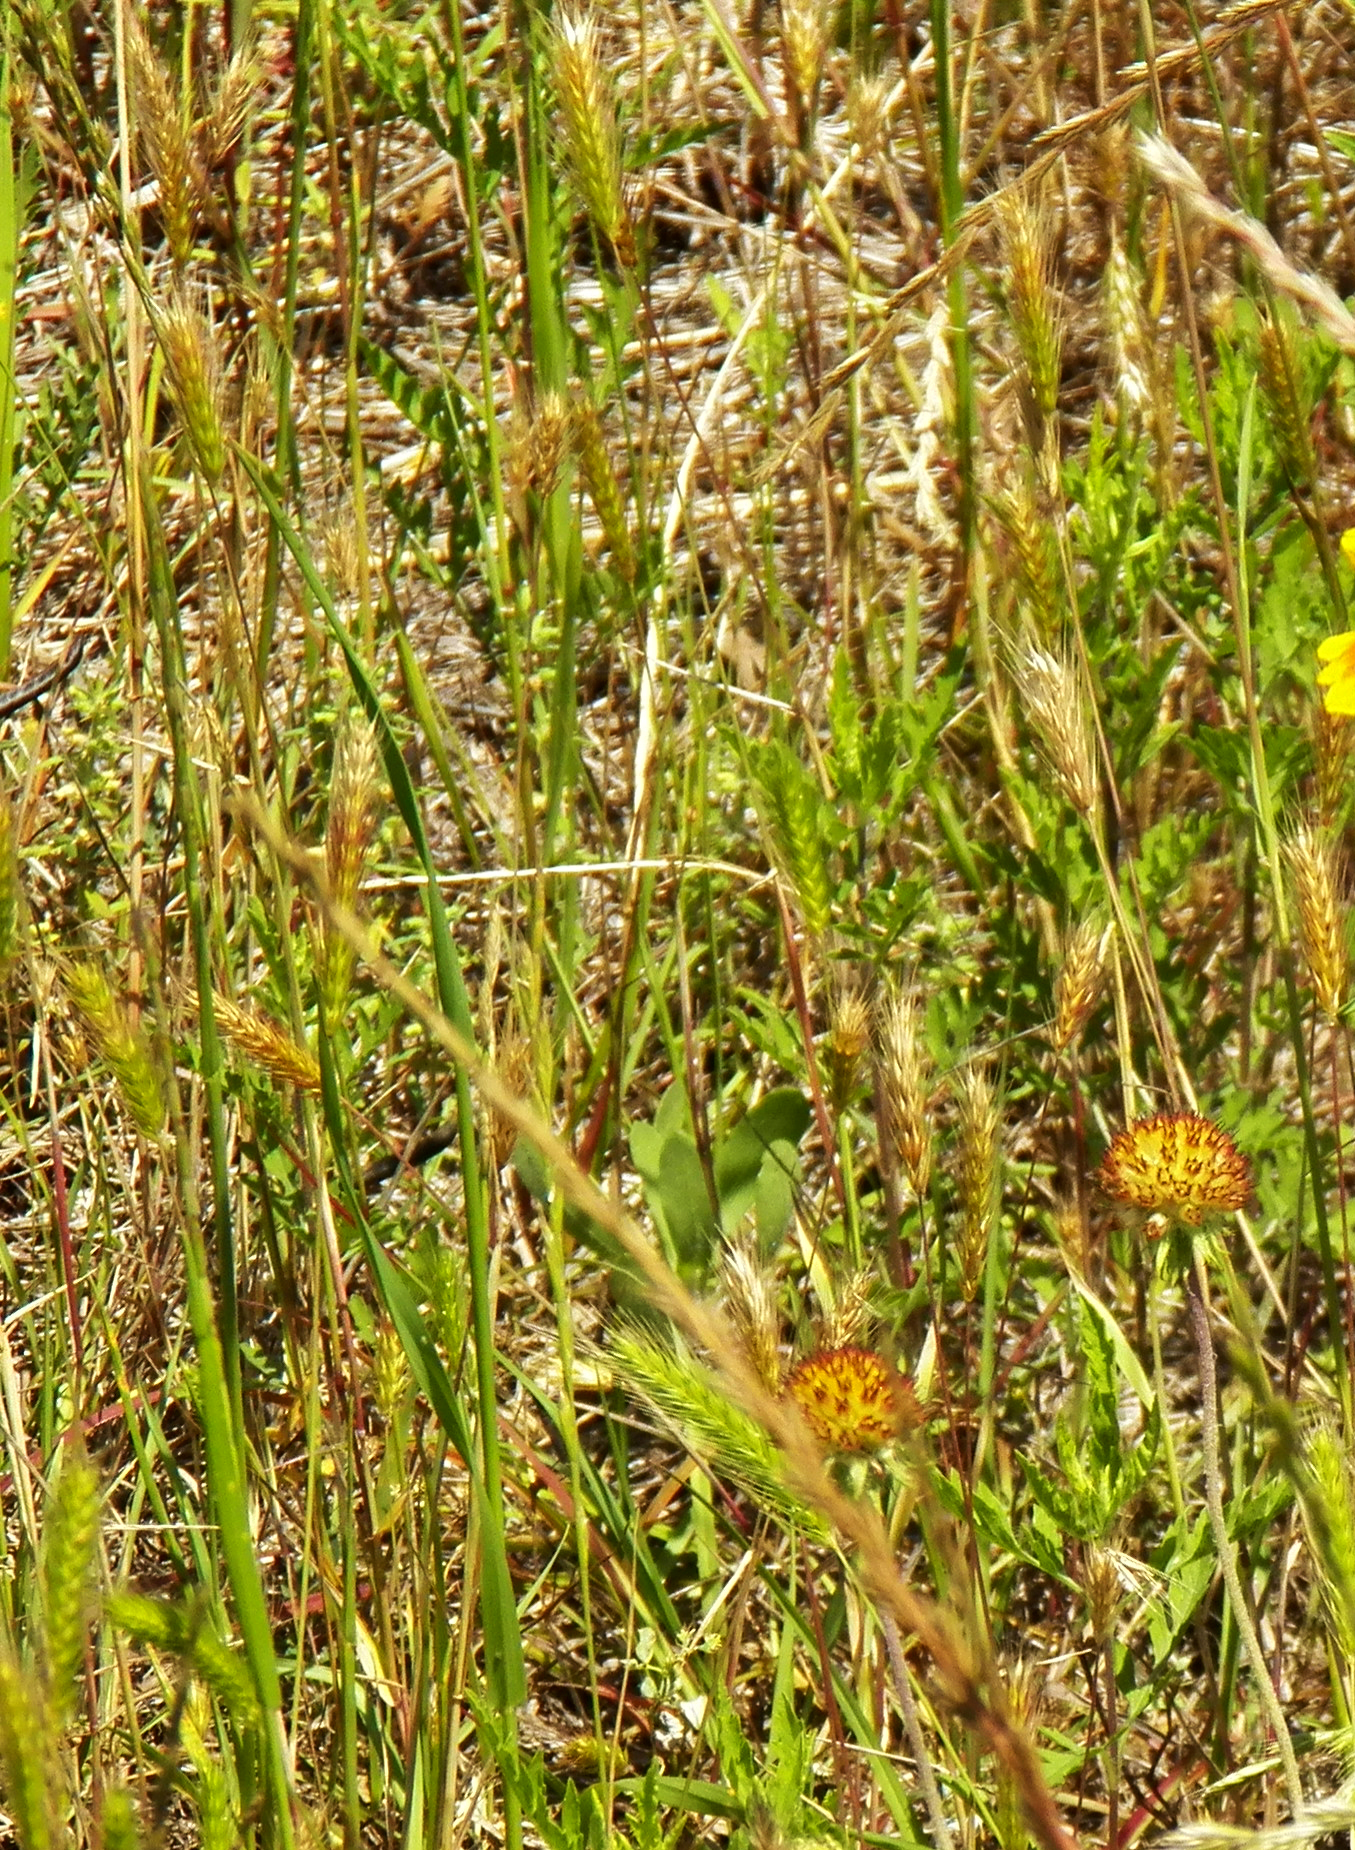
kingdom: Plantae
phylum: Tracheophyta
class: Liliopsida
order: Poales
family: Poaceae
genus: Hordeum
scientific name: Hordeum pusillum
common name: Little barley
